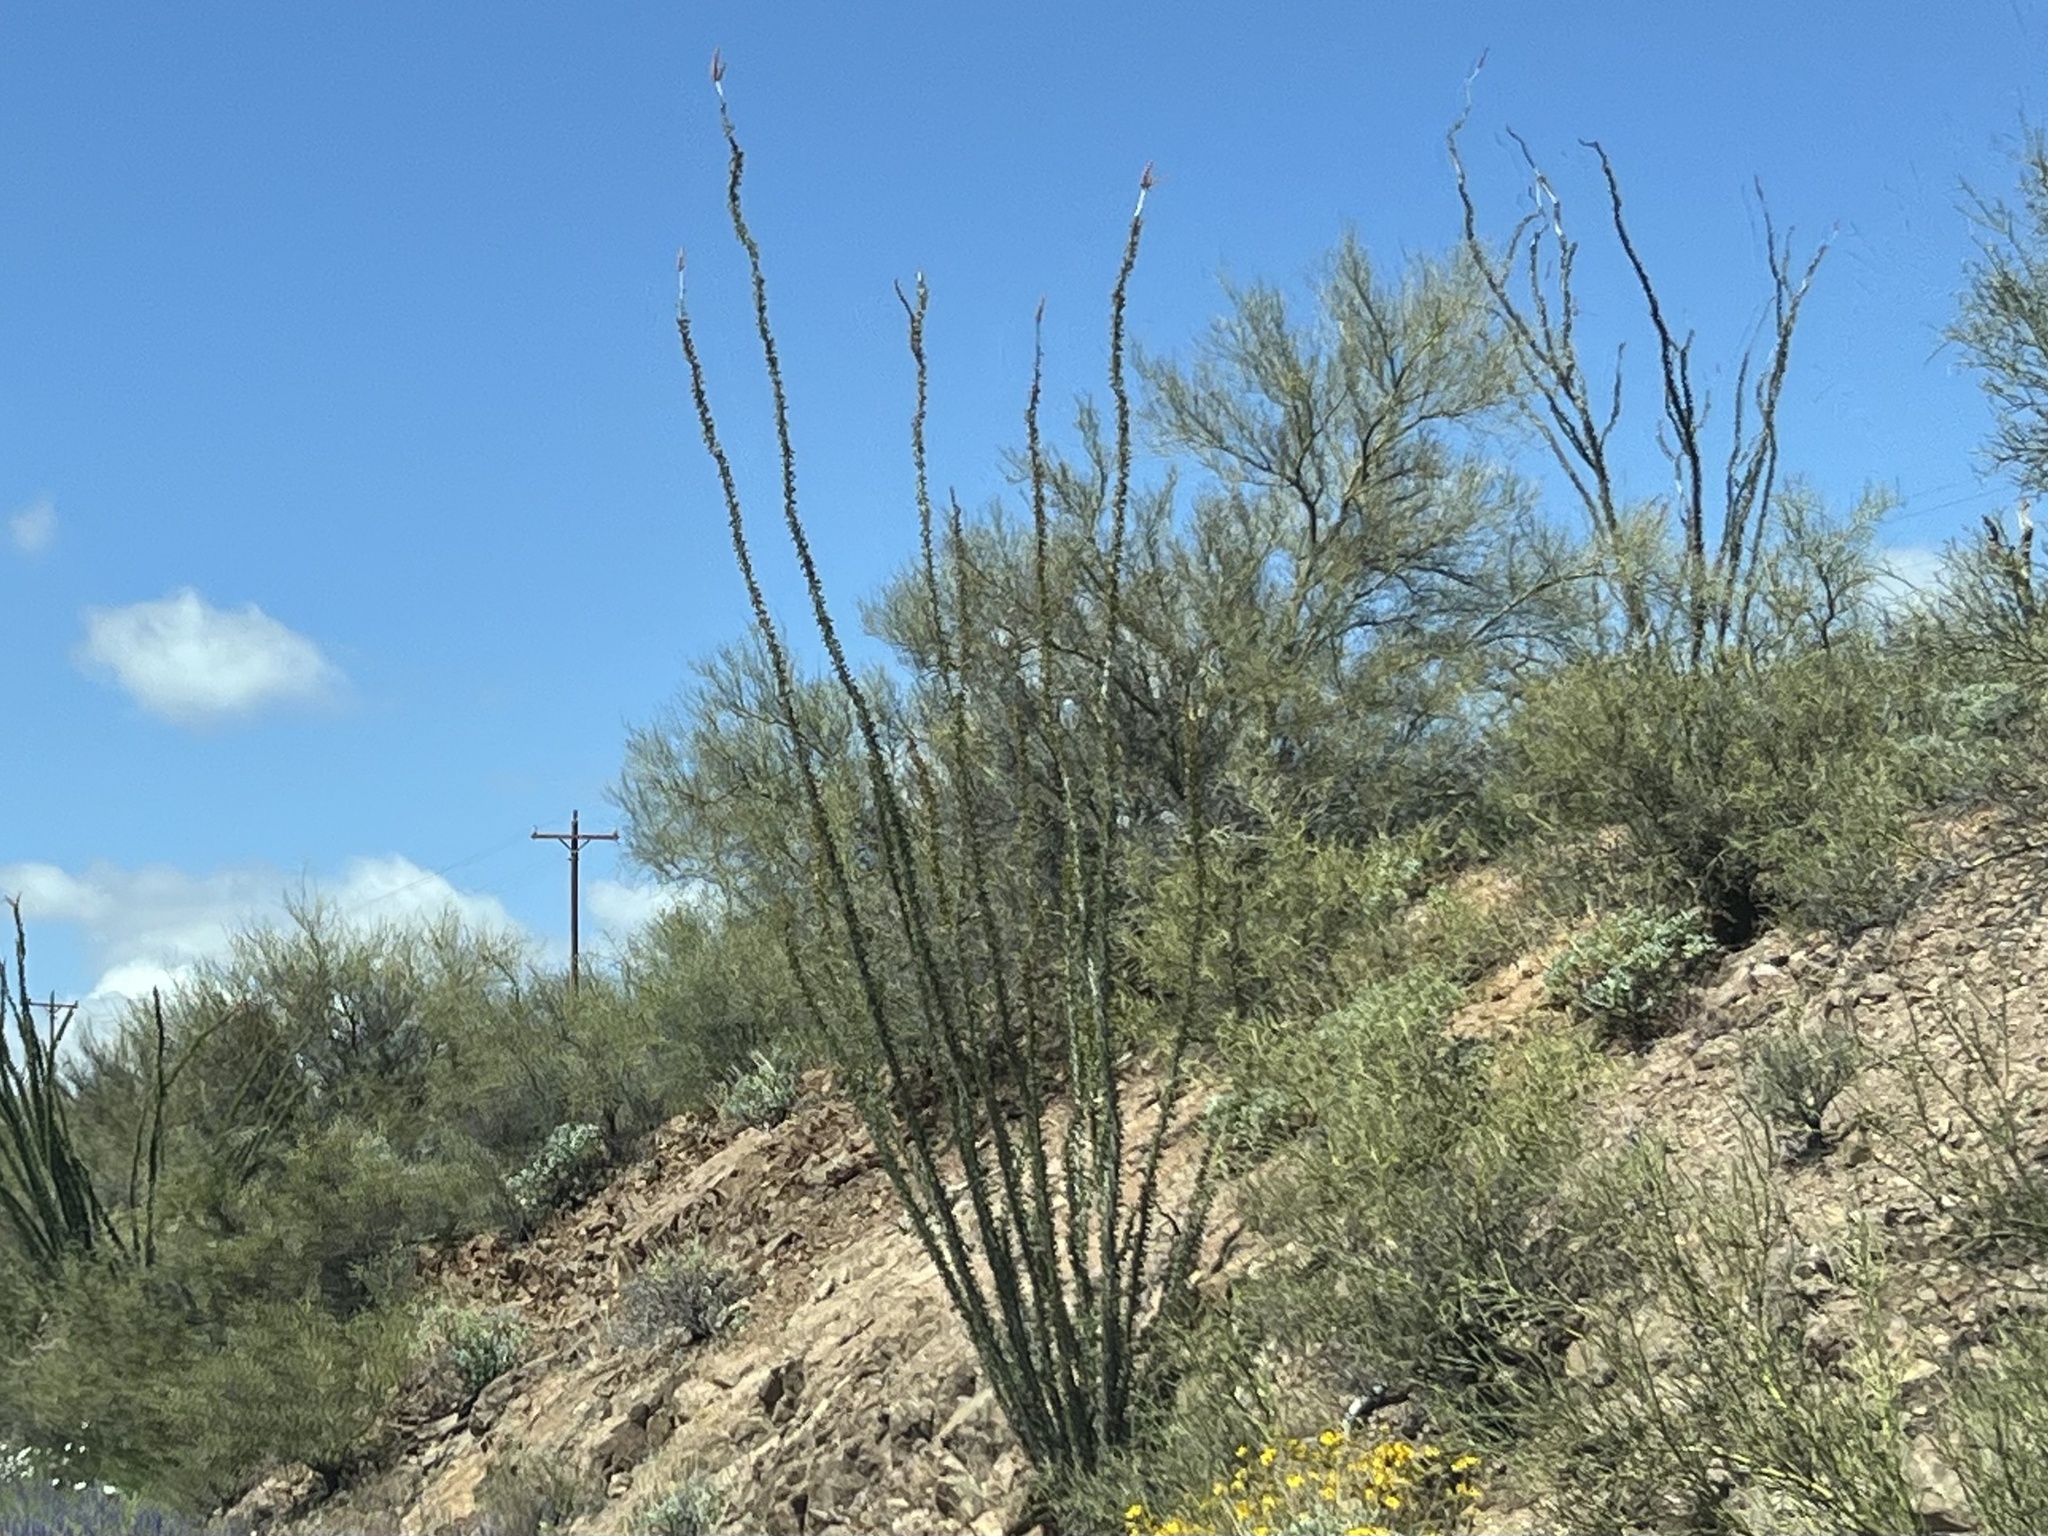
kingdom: Plantae
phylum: Tracheophyta
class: Magnoliopsida
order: Ericales
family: Fouquieriaceae
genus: Fouquieria
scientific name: Fouquieria splendens
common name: Vine-cactus
